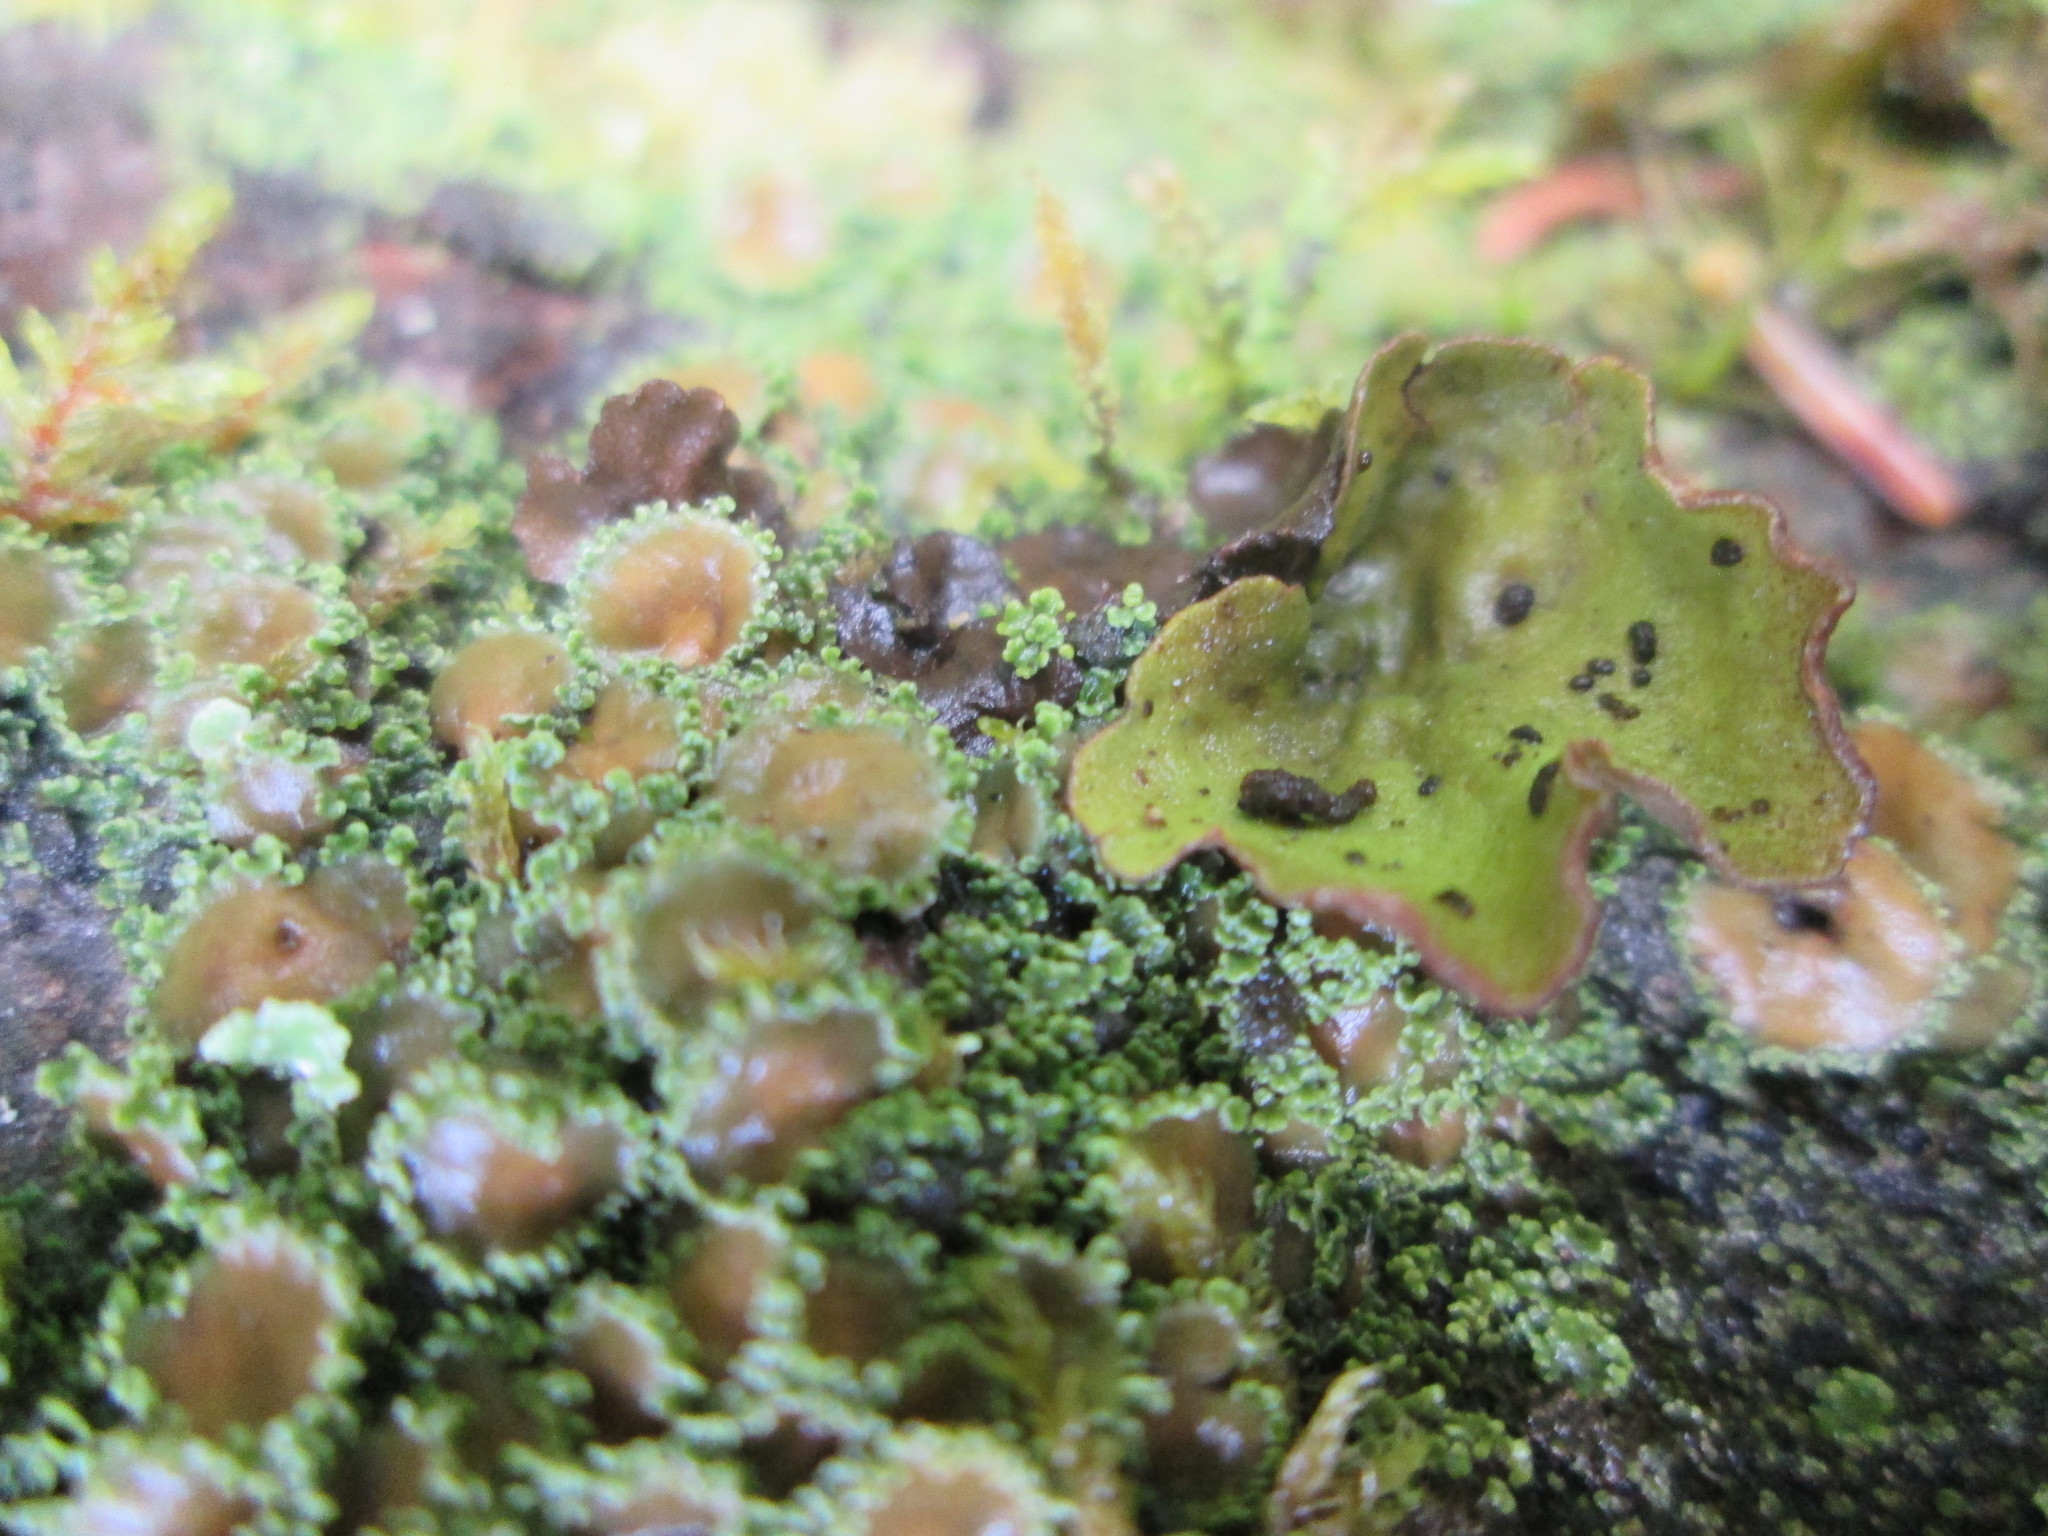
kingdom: Fungi
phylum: Ascomycota
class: Lecanoromycetes
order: Peltigerales
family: Pannariaceae
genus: Psoroma
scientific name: Psoroma hypnorum
